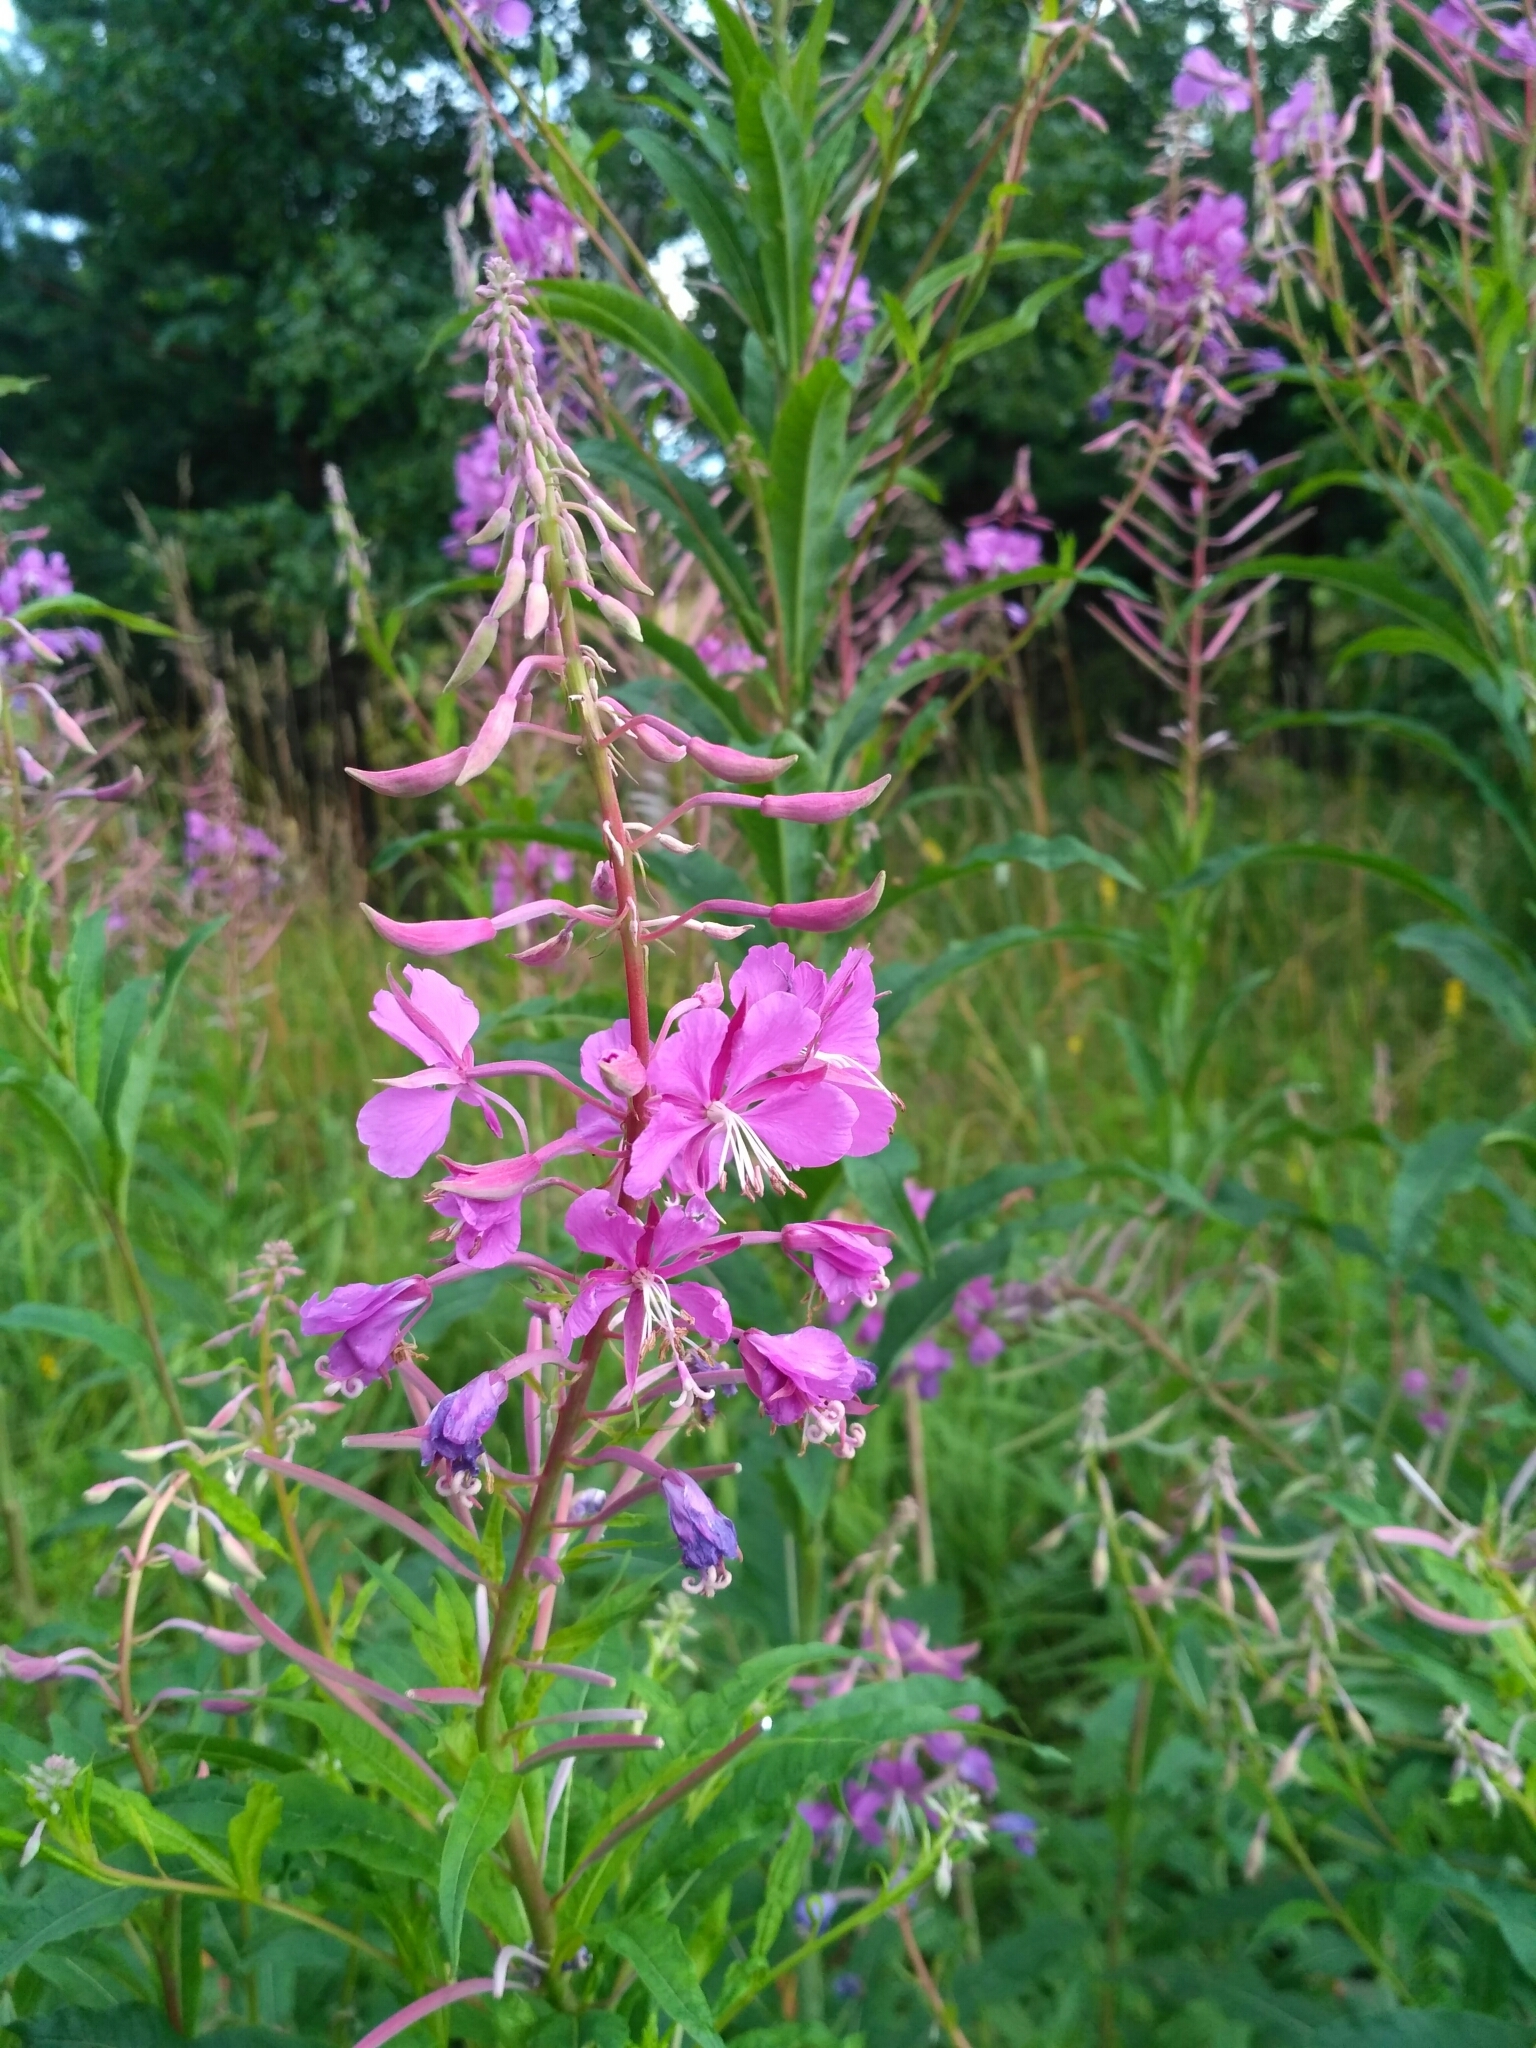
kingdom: Plantae
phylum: Tracheophyta
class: Magnoliopsida
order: Myrtales
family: Onagraceae
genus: Chamaenerion
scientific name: Chamaenerion angustifolium
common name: Fireweed
